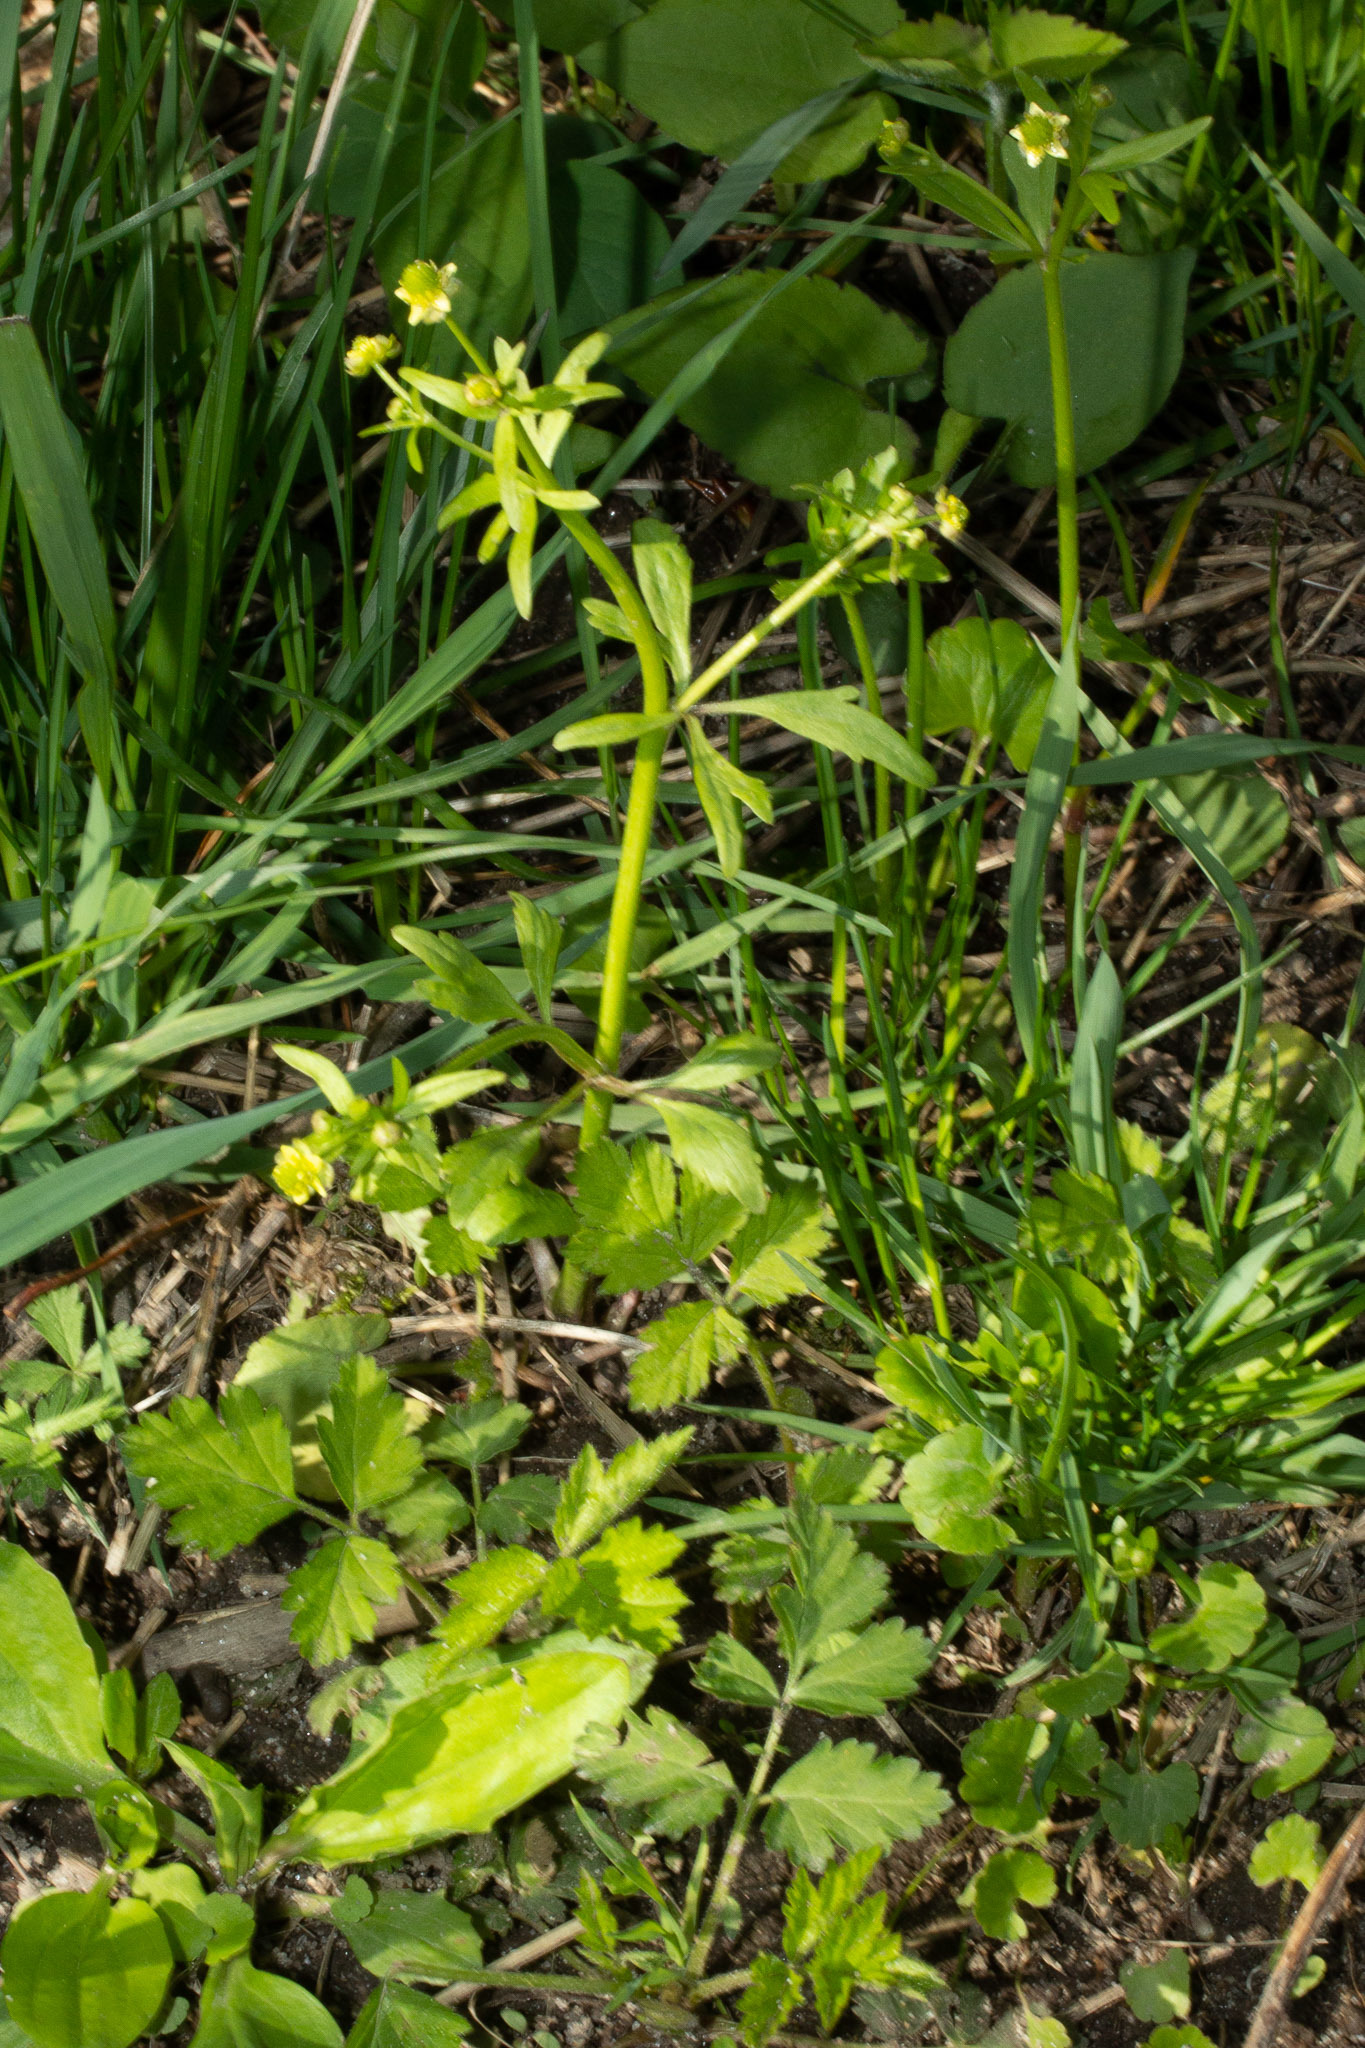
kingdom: Plantae
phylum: Tracheophyta
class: Magnoliopsida
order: Ranunculales
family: Ranunculaceae
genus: Ranunculus
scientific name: Ranunculus abortivus
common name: Early wood buttercup
